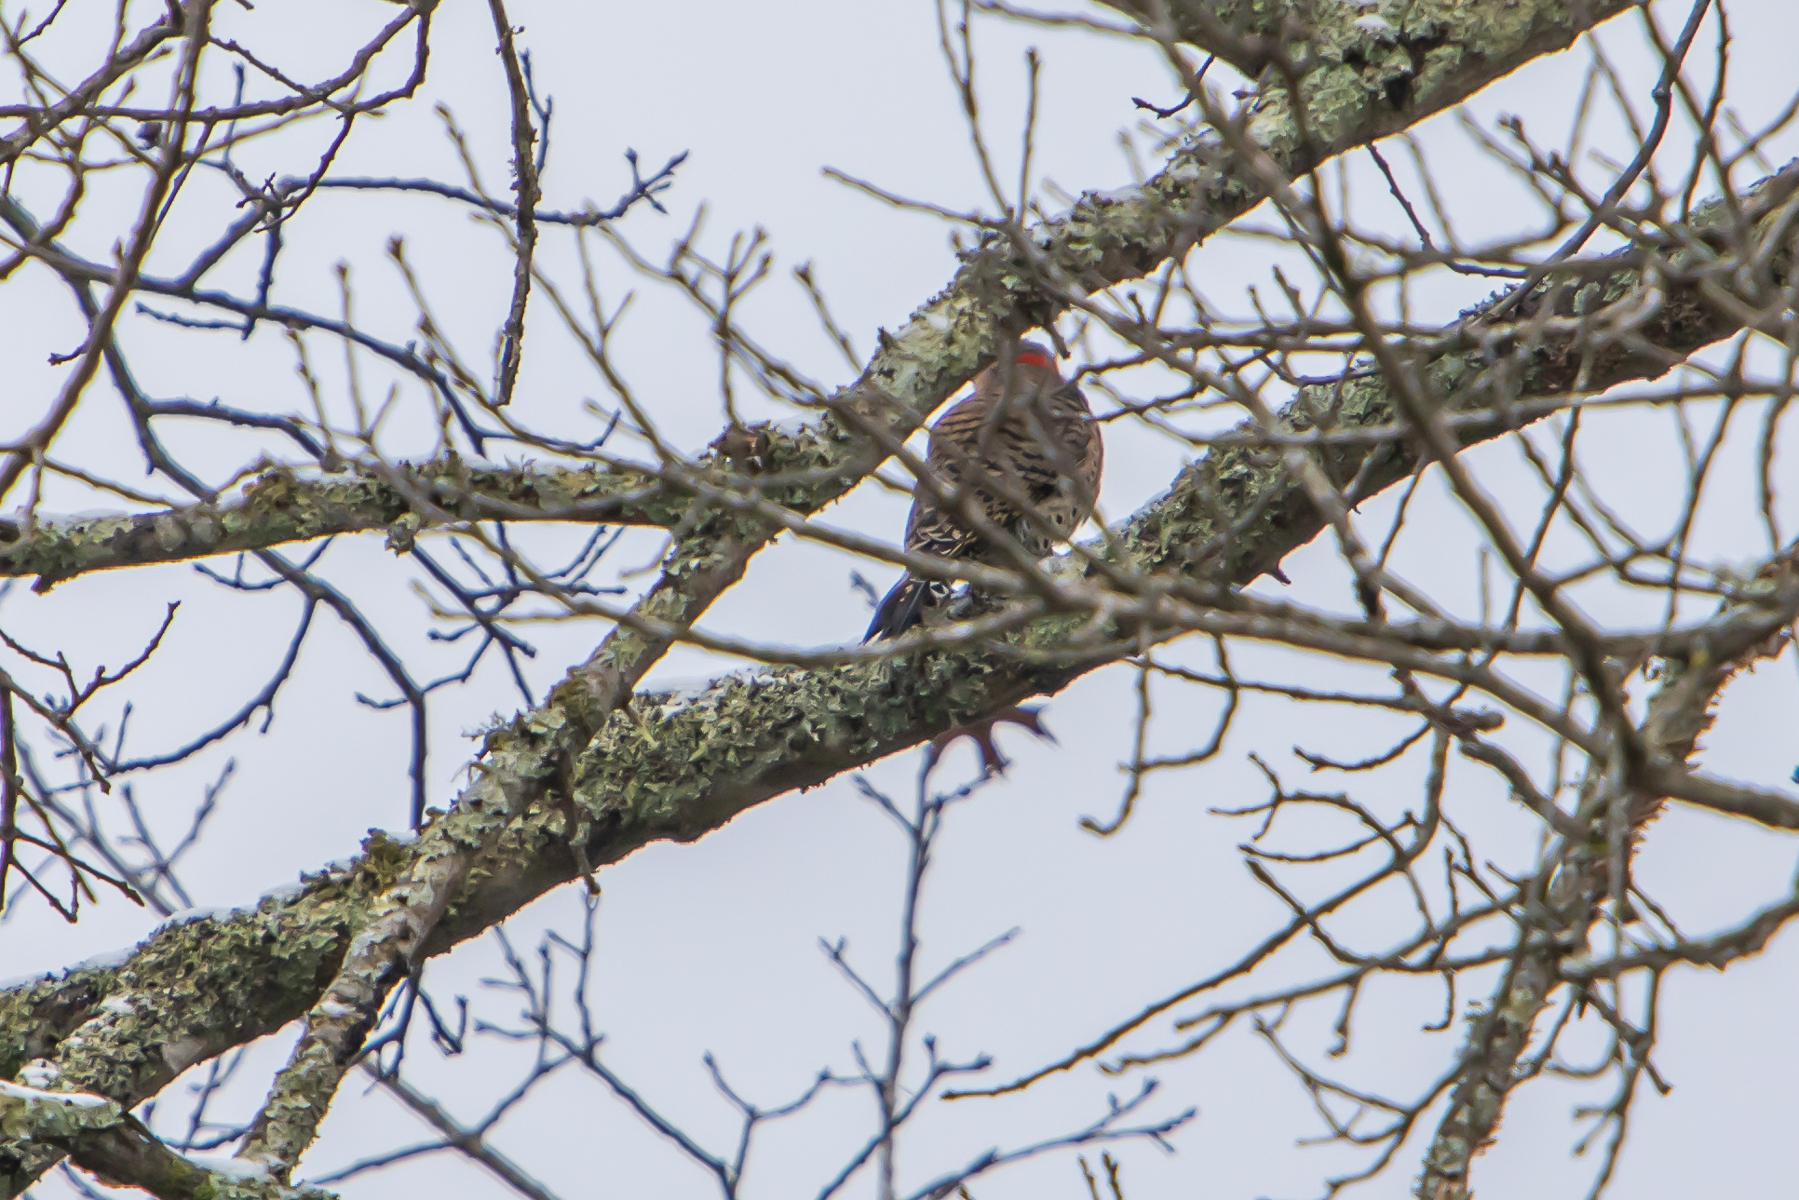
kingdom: Animalia
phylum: Chordata
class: Aves
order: Piciformes
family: Picidae
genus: Colaptes
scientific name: Colaptes auratus
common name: Northern flicker
